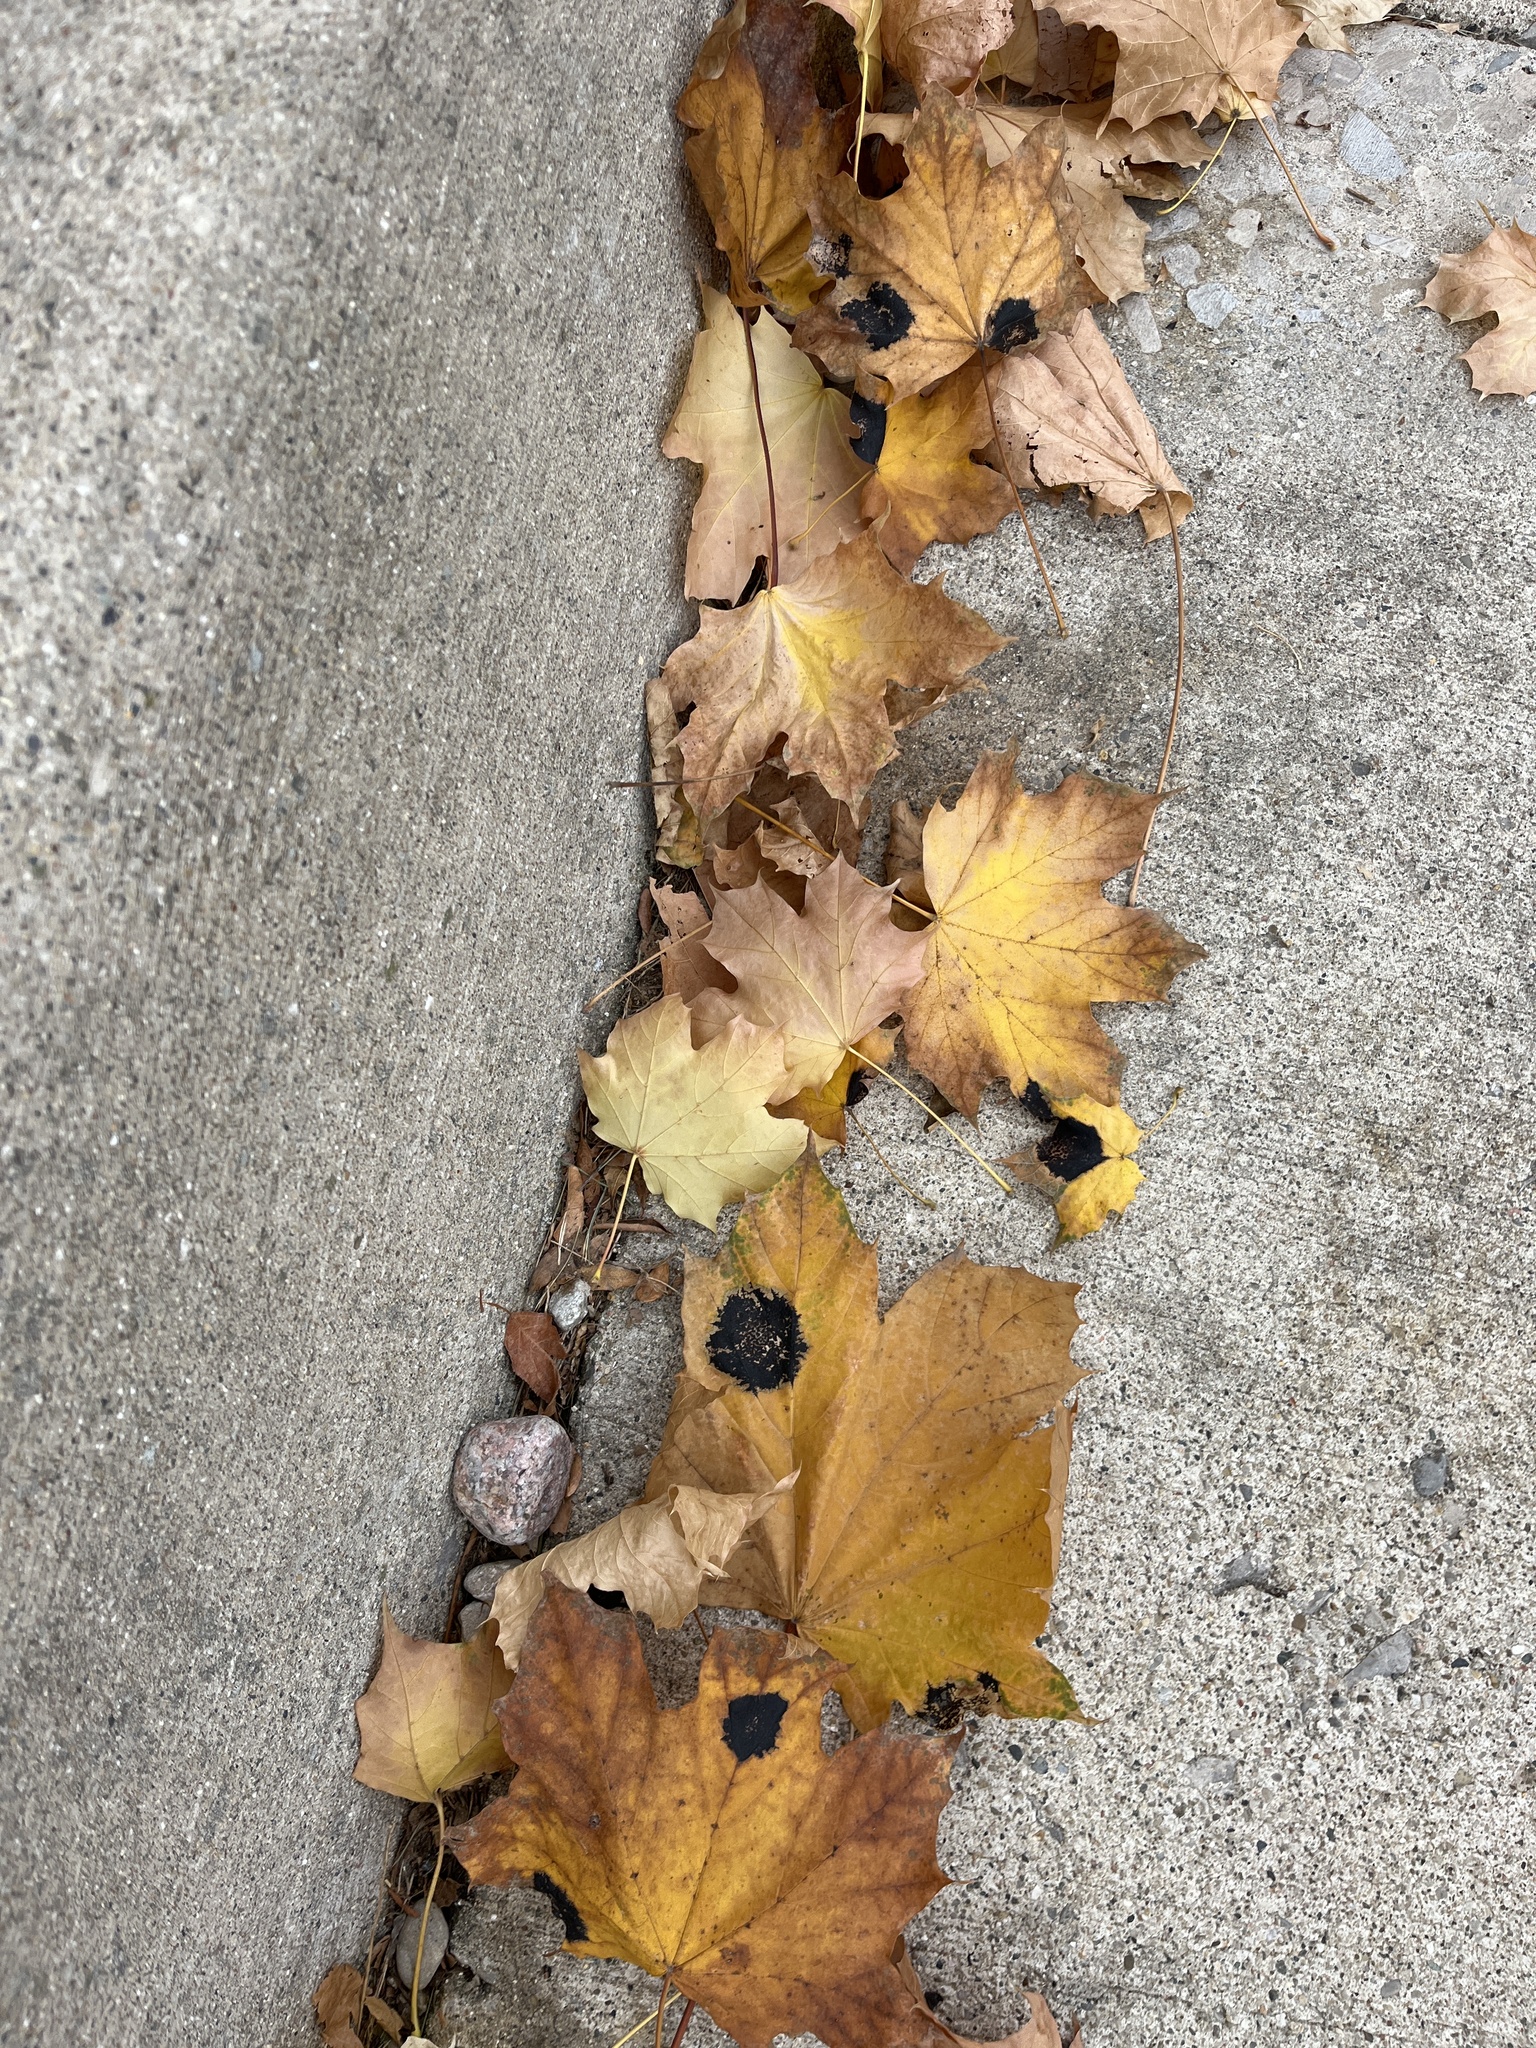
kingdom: Fungi
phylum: Ascomycota
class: Leotiomycetes
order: Rhytismatales
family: Rhytismataceae
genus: Rhytisma
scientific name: Rhytisma acerinum
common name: European tar spot
